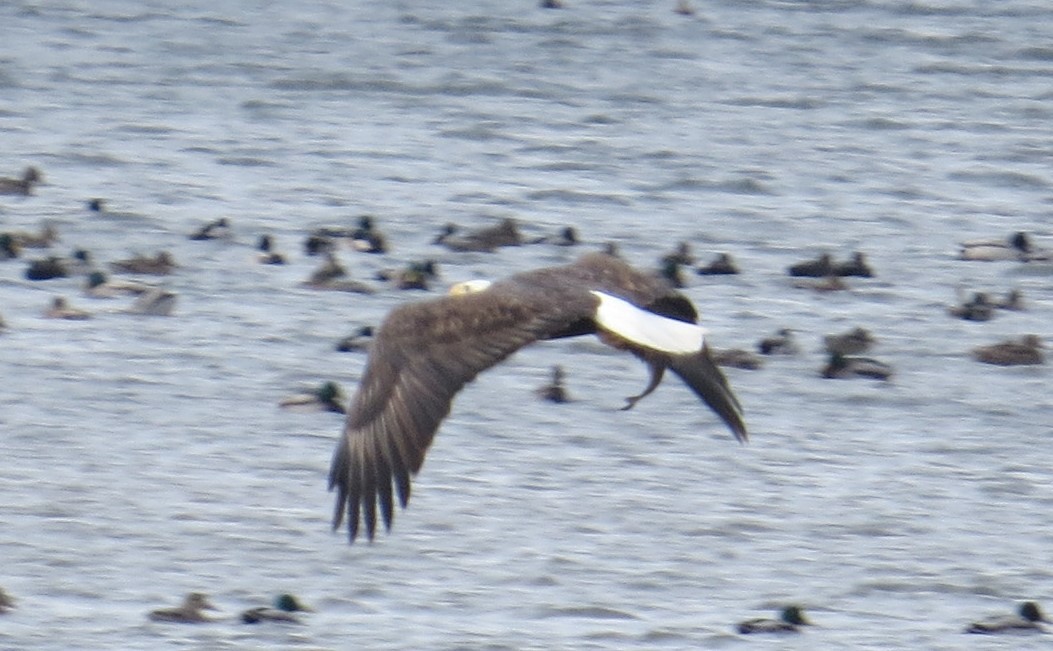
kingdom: Animalia
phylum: Chordata
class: Aves
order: Accipitriformes
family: Accipitridae
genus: Haliaeetus
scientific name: Haliaeetus leucocephalus
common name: Bald eagle
